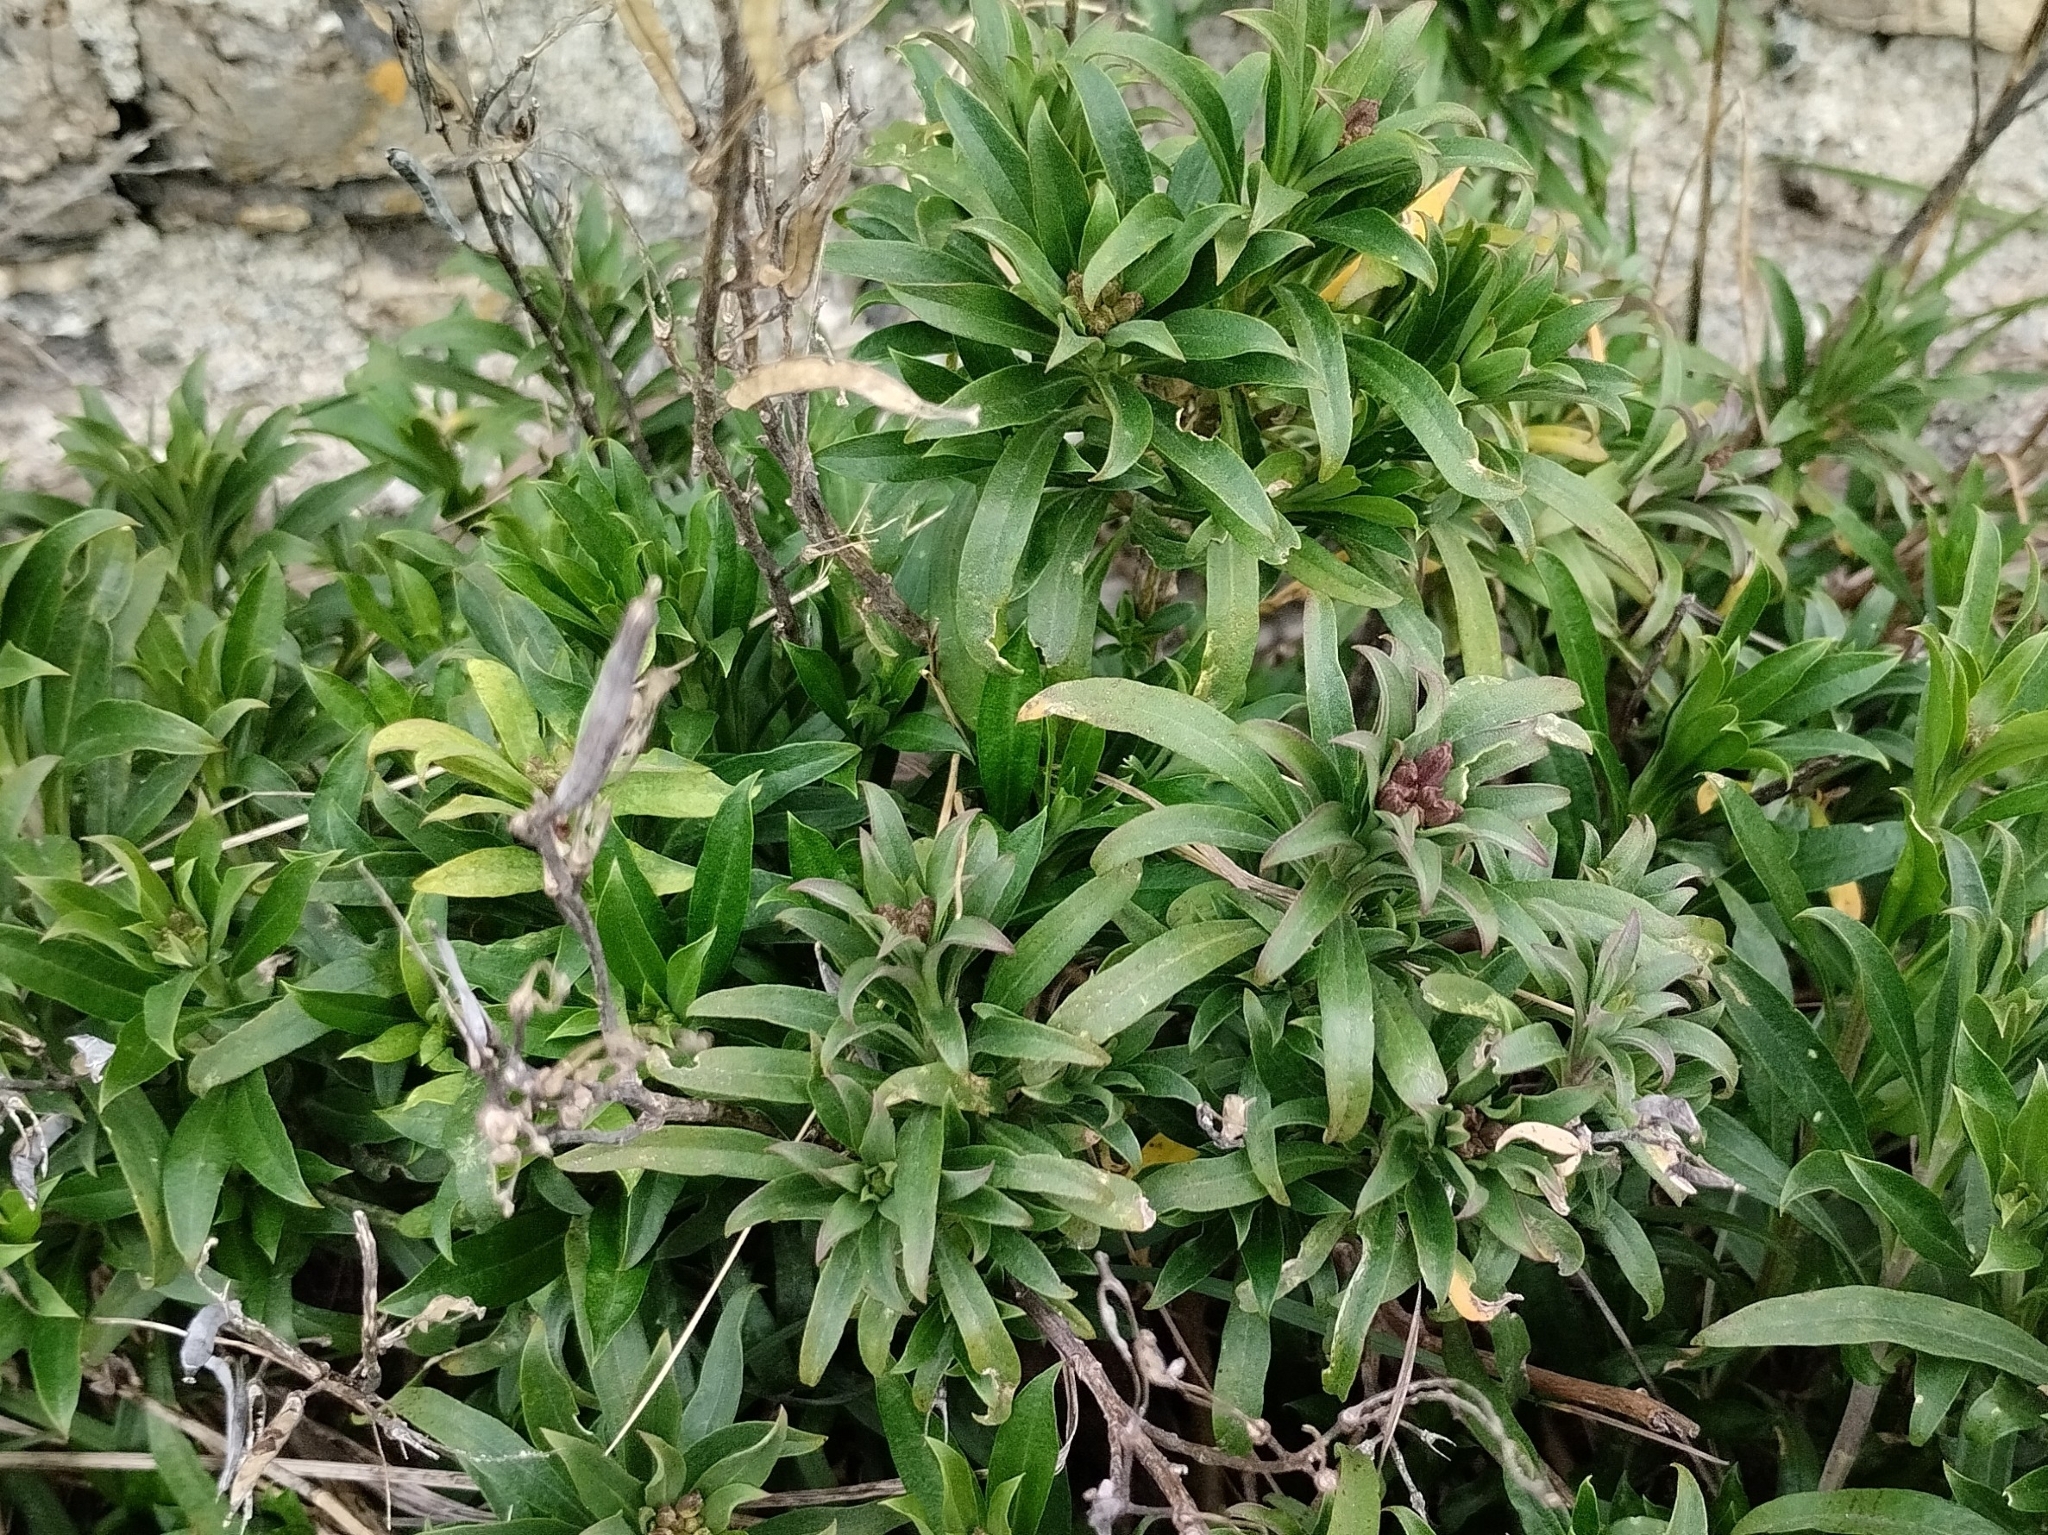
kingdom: Plantae
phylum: Tracheophyta
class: Magnoliopsida
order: Brassicales
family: Brassicaceae
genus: Erysimum
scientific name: Erysimum cheiri
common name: Wallflower
